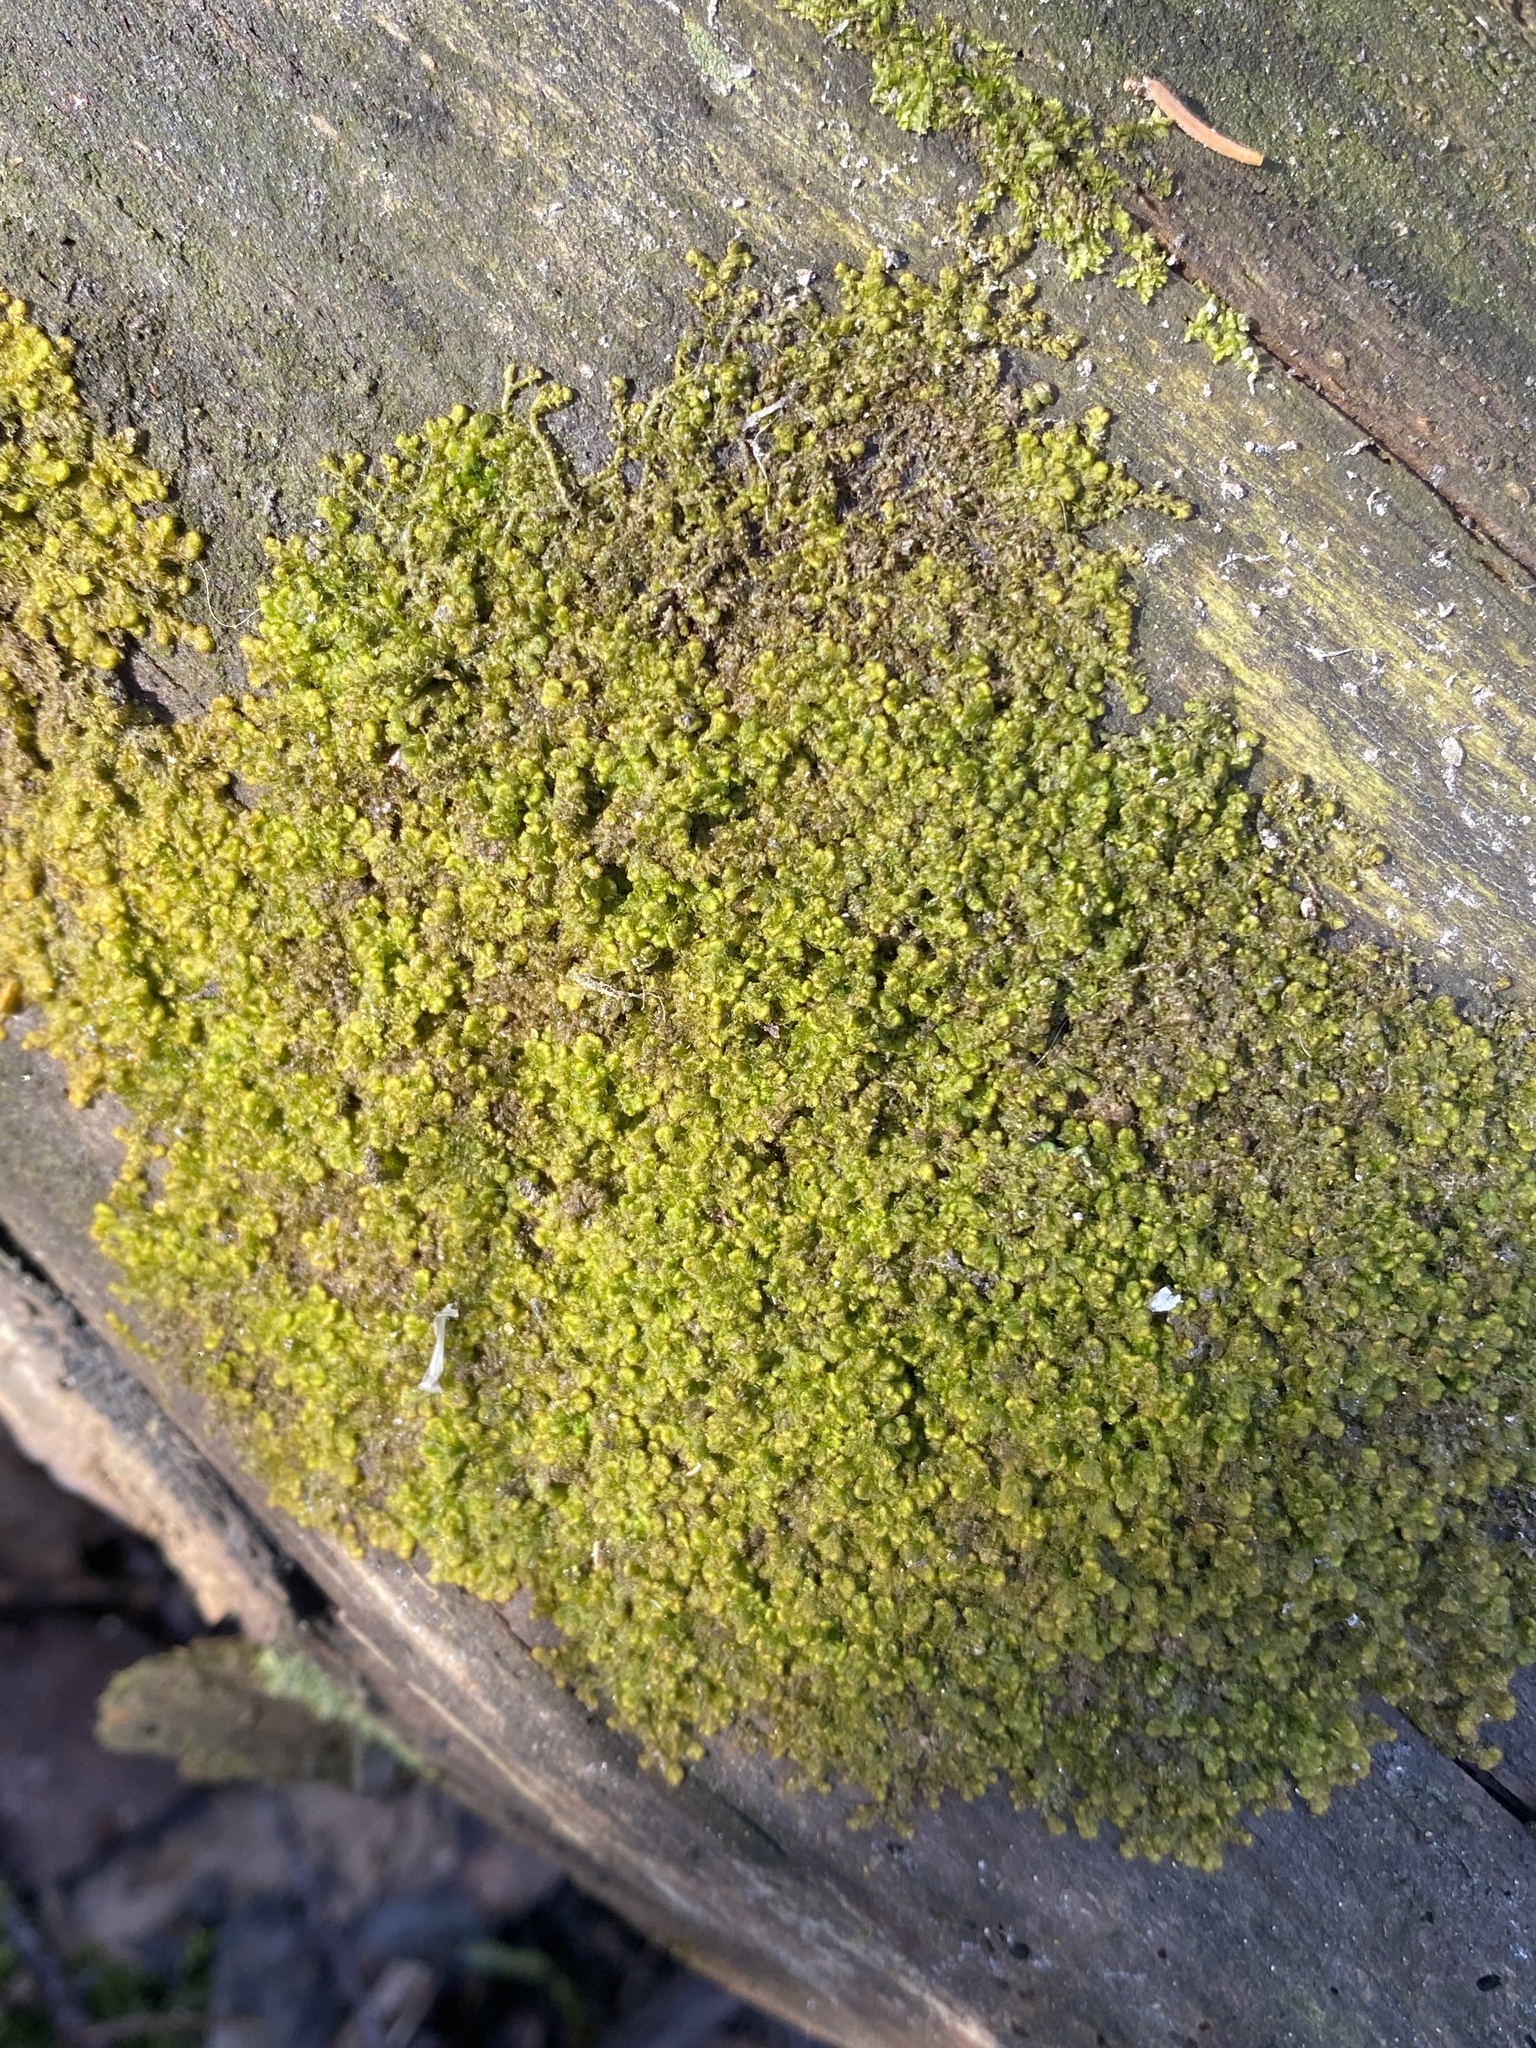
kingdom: Plantae
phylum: Marchantiophyta
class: Jungermanniopsida
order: Ptilidiales
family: Ptilidiaceae
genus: Ptilidium
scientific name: Ptilidium pulcherrimum
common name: Tree fringewort
